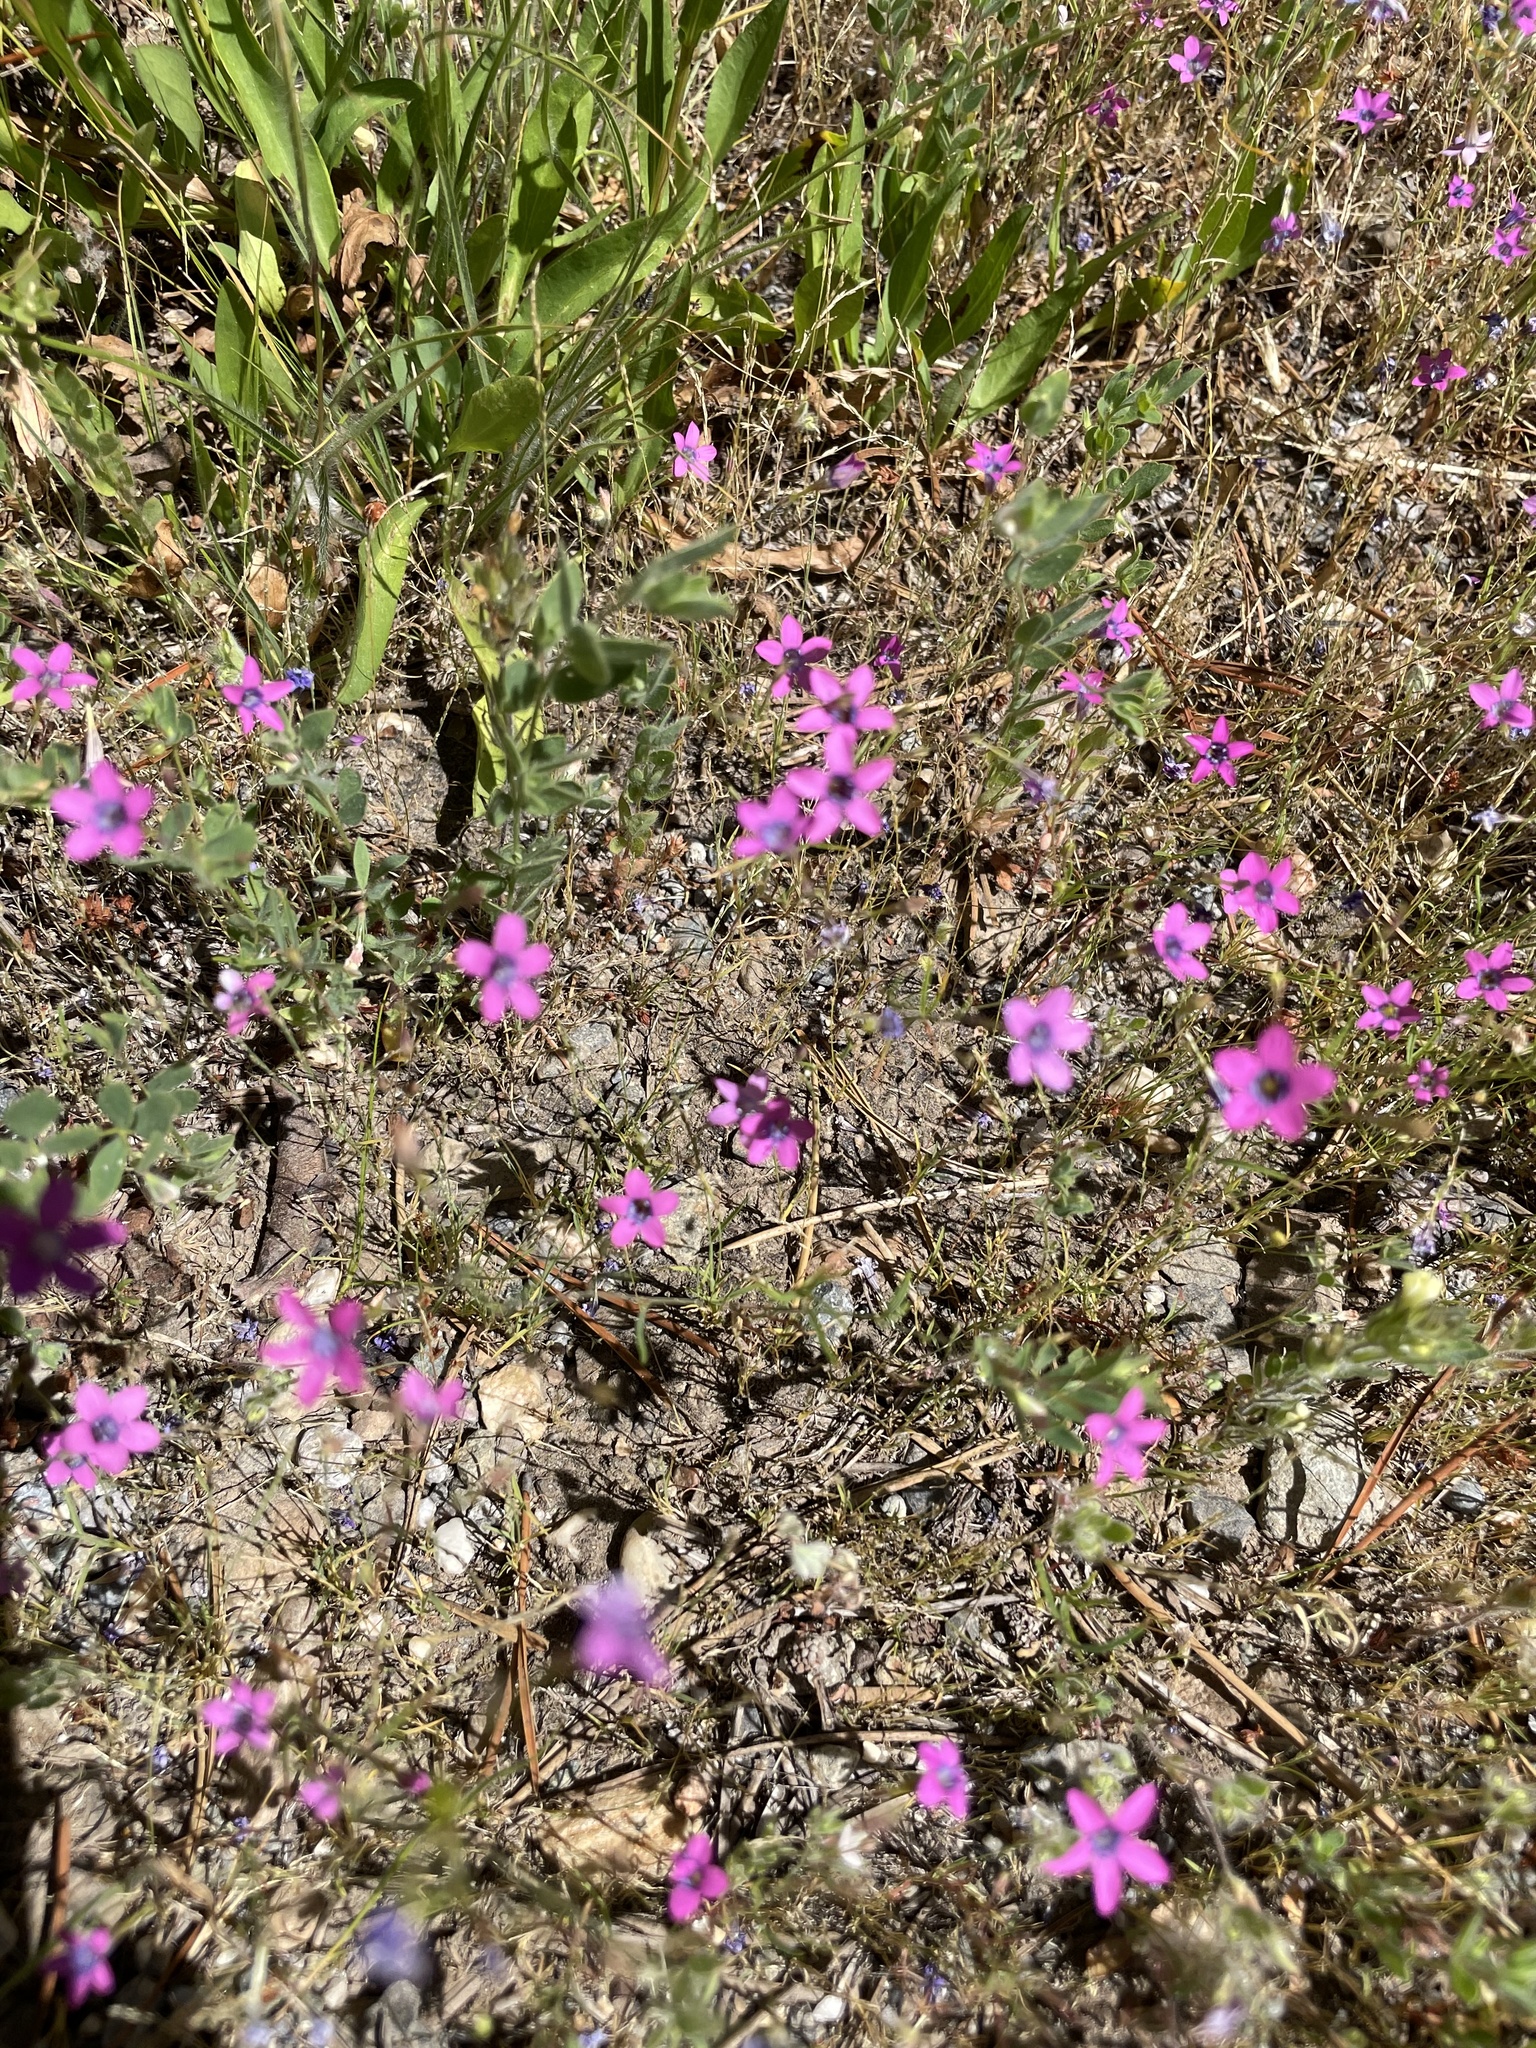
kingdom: Plantae
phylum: Tracheophyta
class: Magnoliopsida
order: Ericales
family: Polemoniaceae
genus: Navarretia
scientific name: Navarretia leptalea
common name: Bridges' pincushionplant
